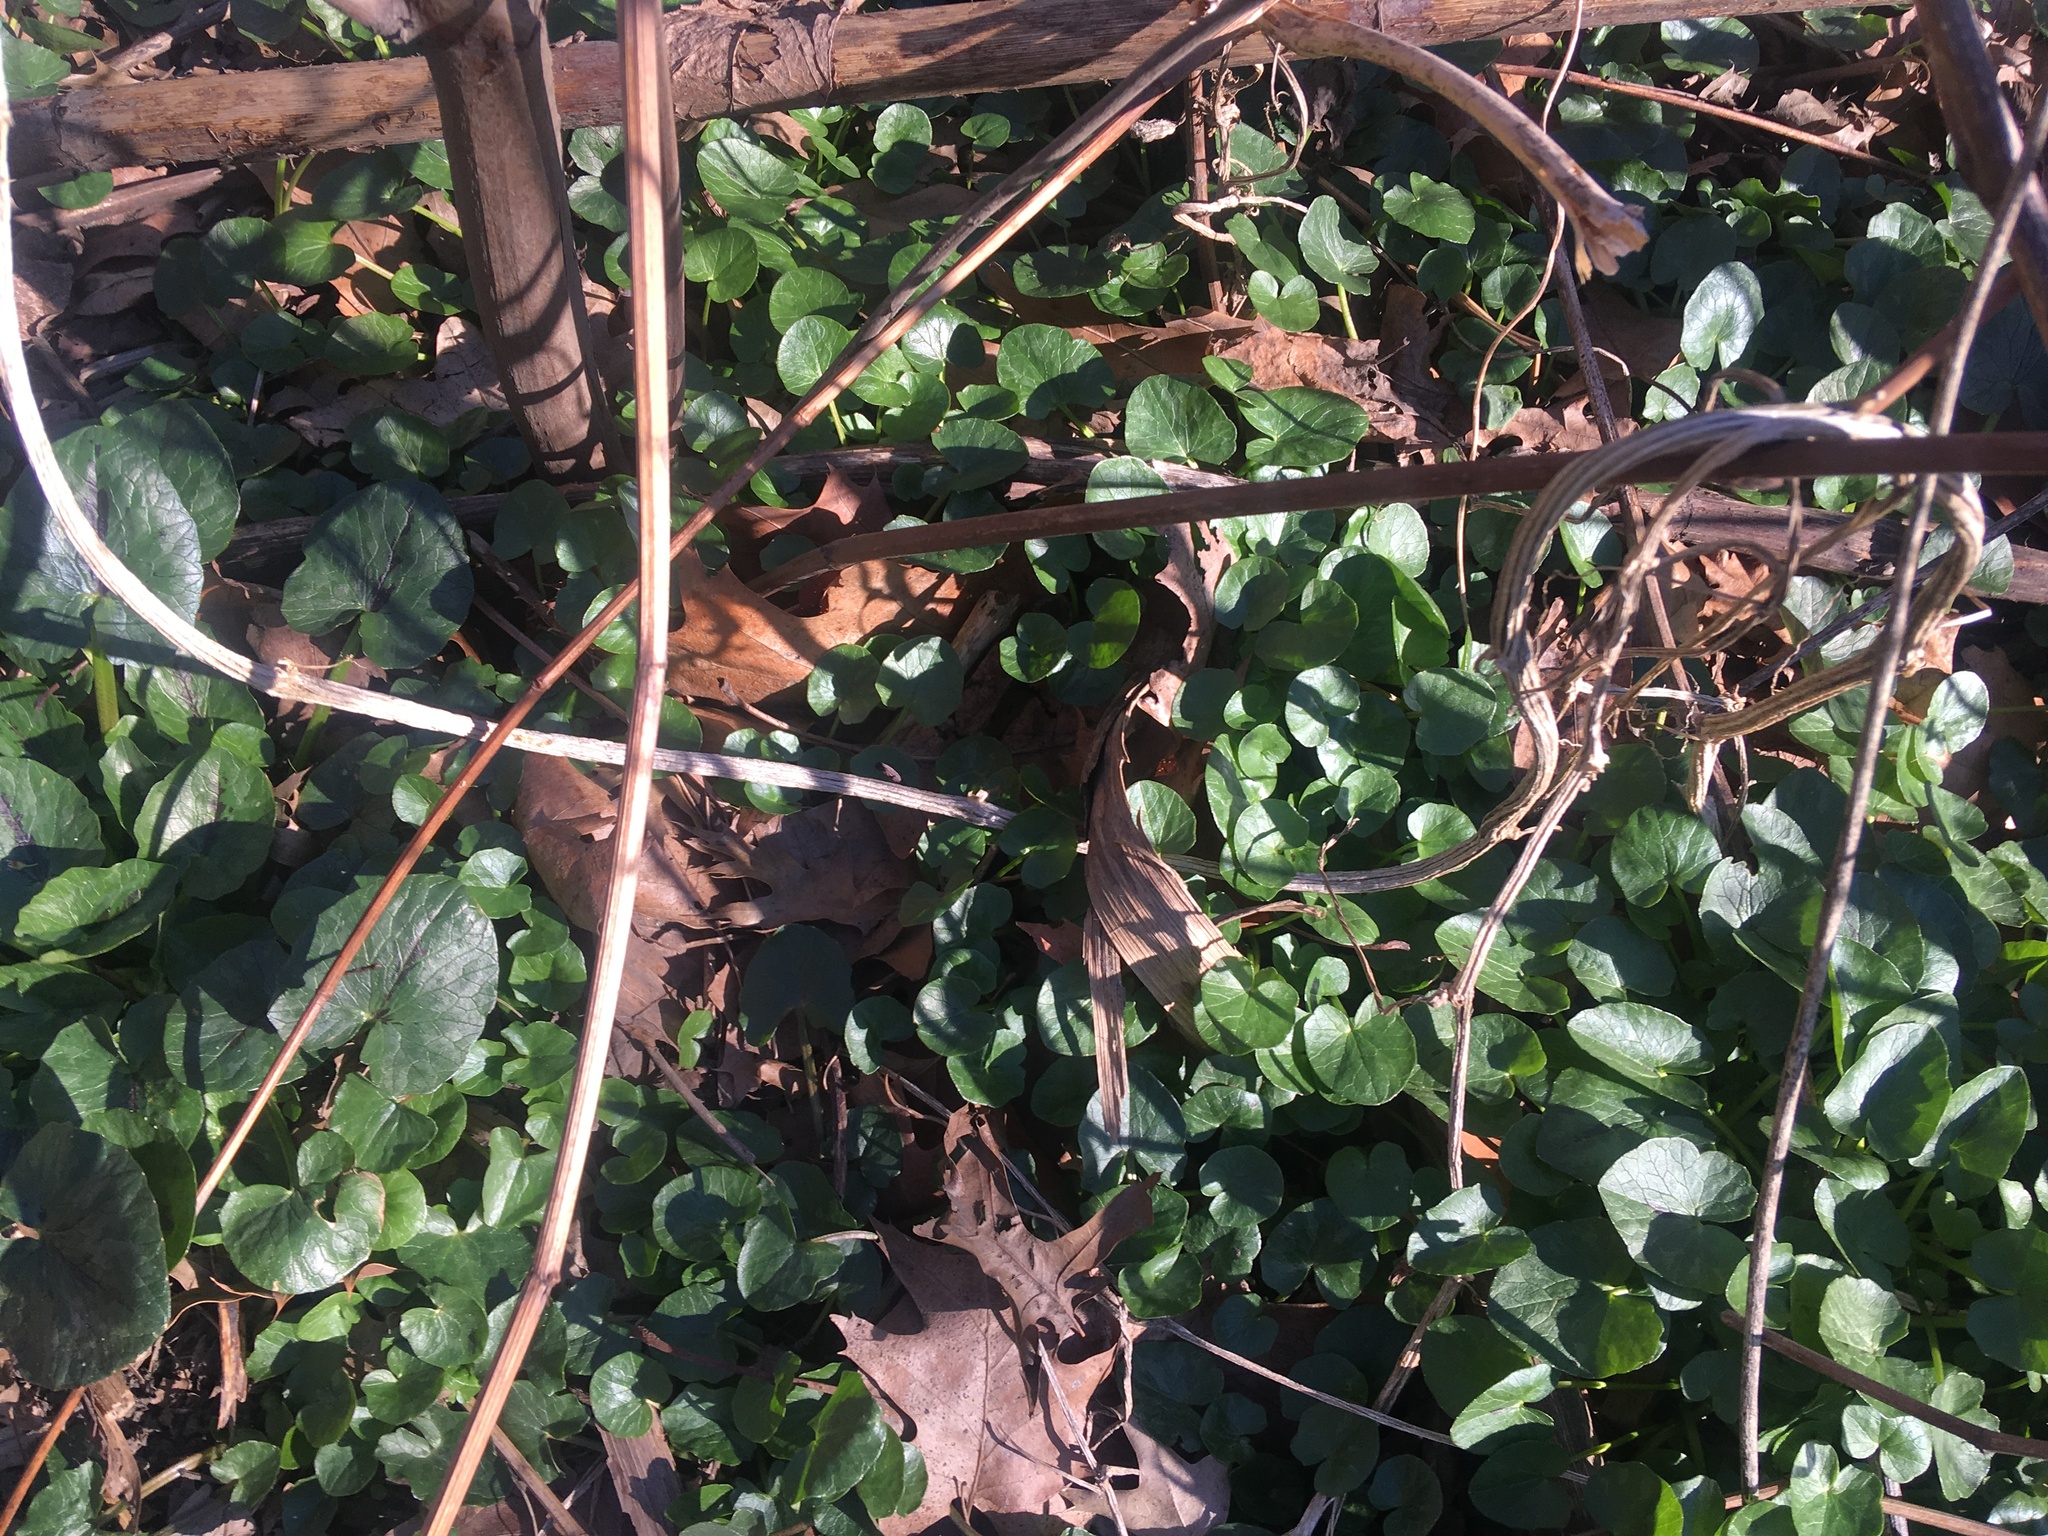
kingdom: Plantae
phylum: Tracheophyta
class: Magnoliopsida
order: Ranunculales
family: Ranunculaceae
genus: Ficaria
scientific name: Ficaria verna
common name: Lesser celandine
